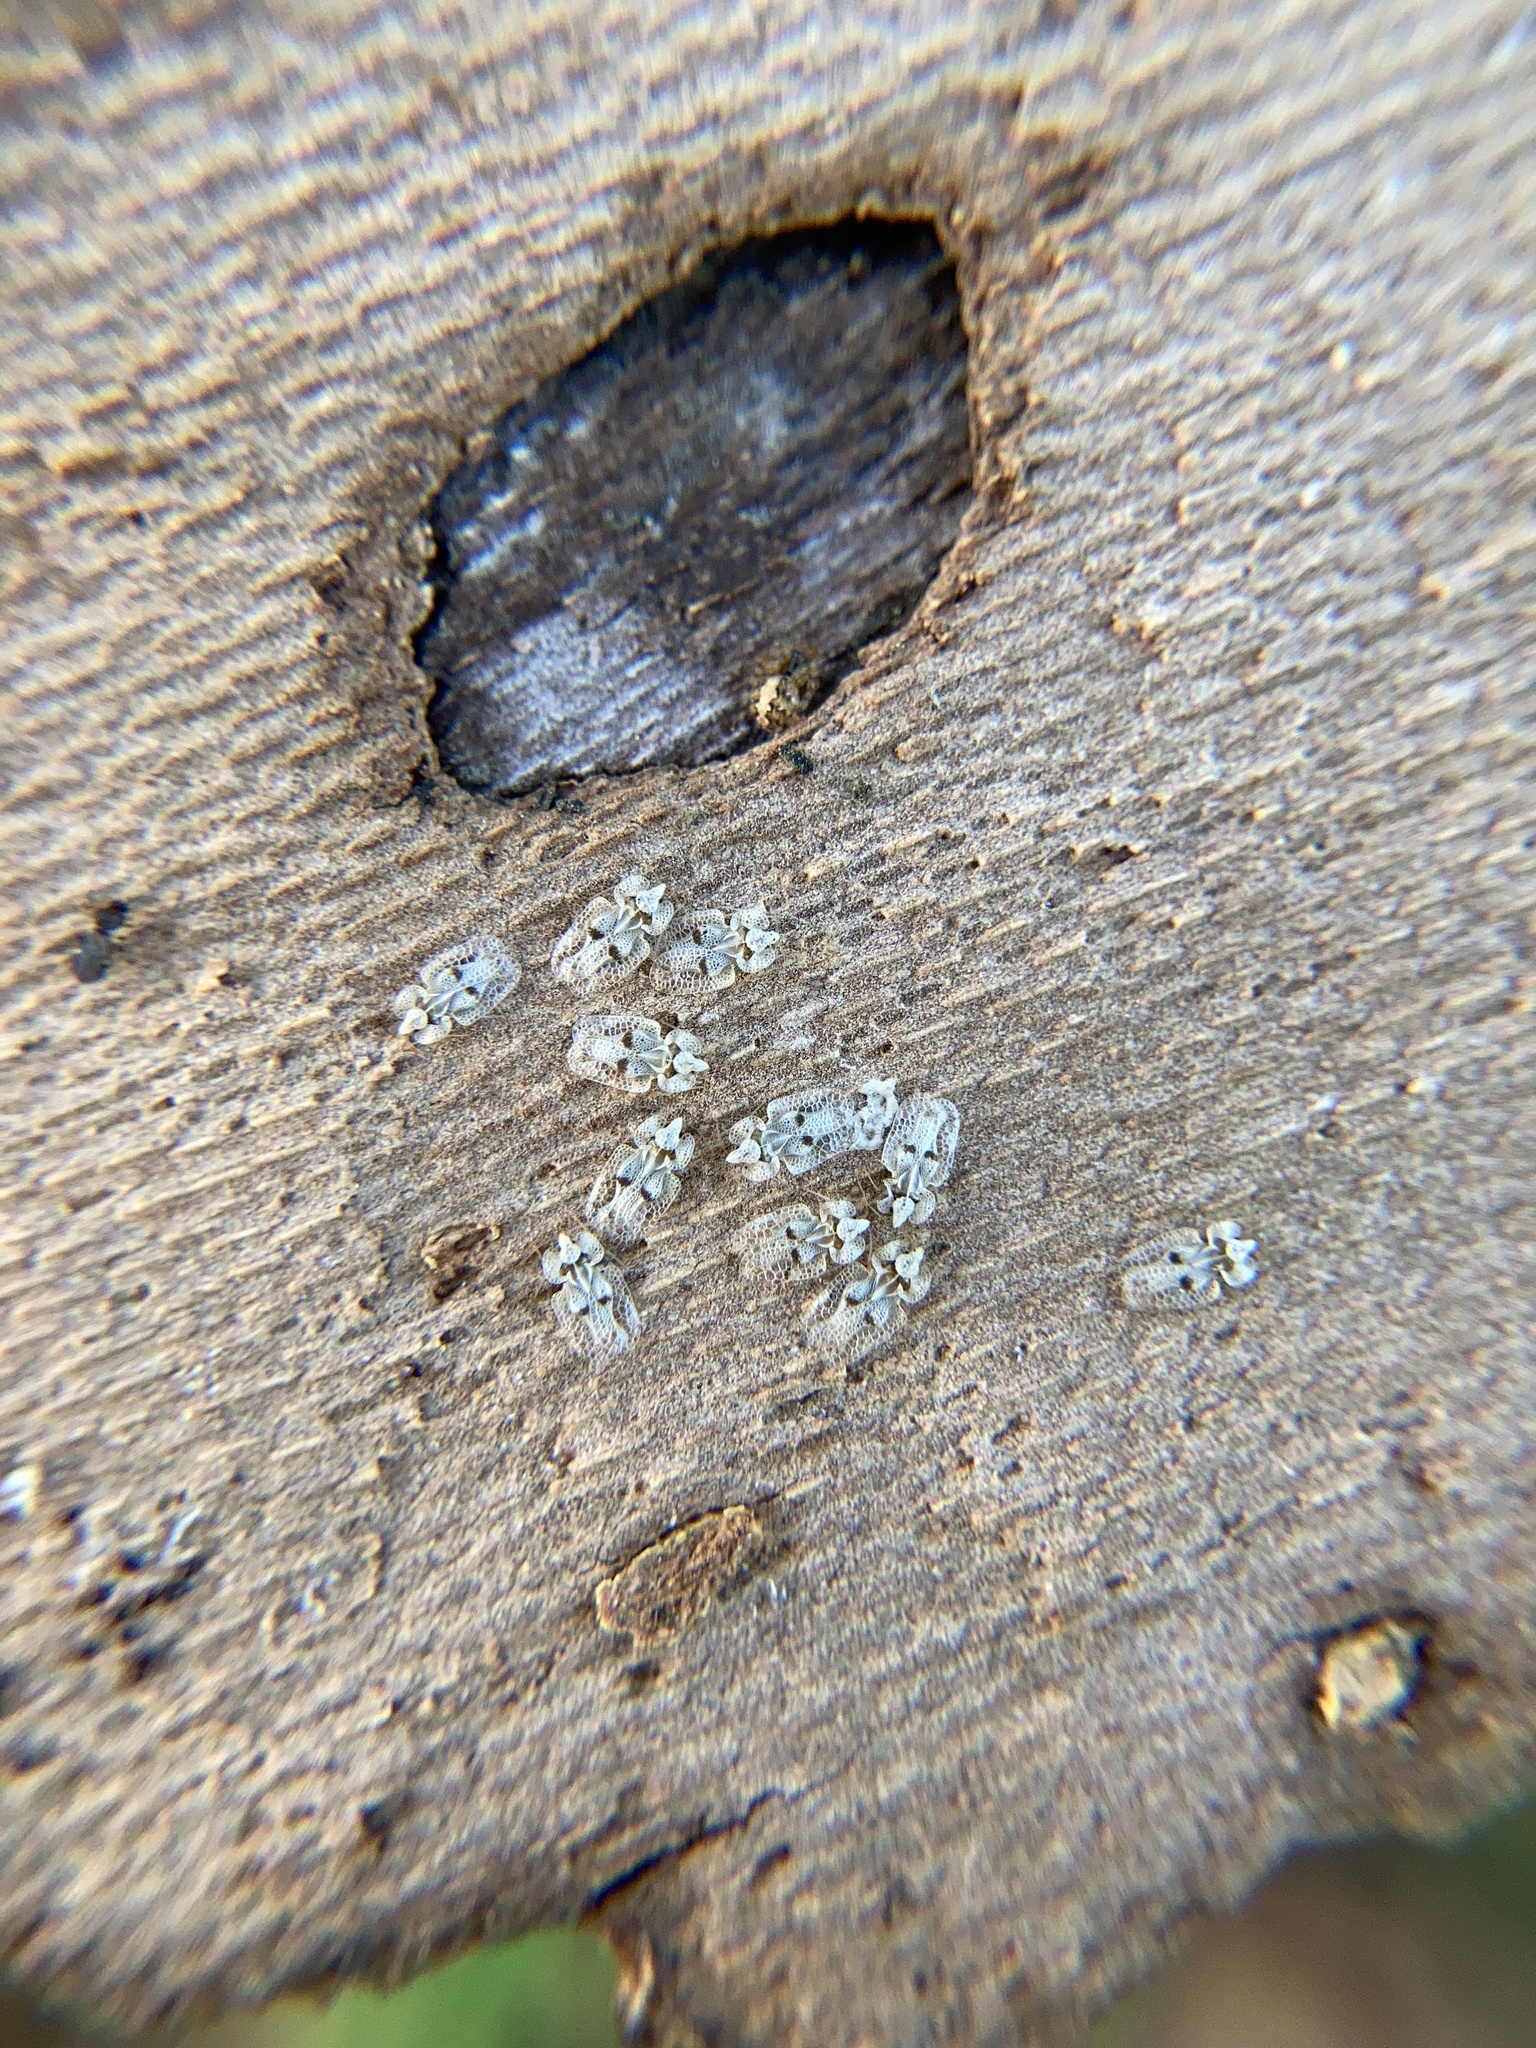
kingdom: Animalia
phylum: Arthropoda
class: Insecta
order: Hemiptera
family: Tingidae
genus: Corythucha
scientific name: Corythucha ciliata
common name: Sycamore lace bug
